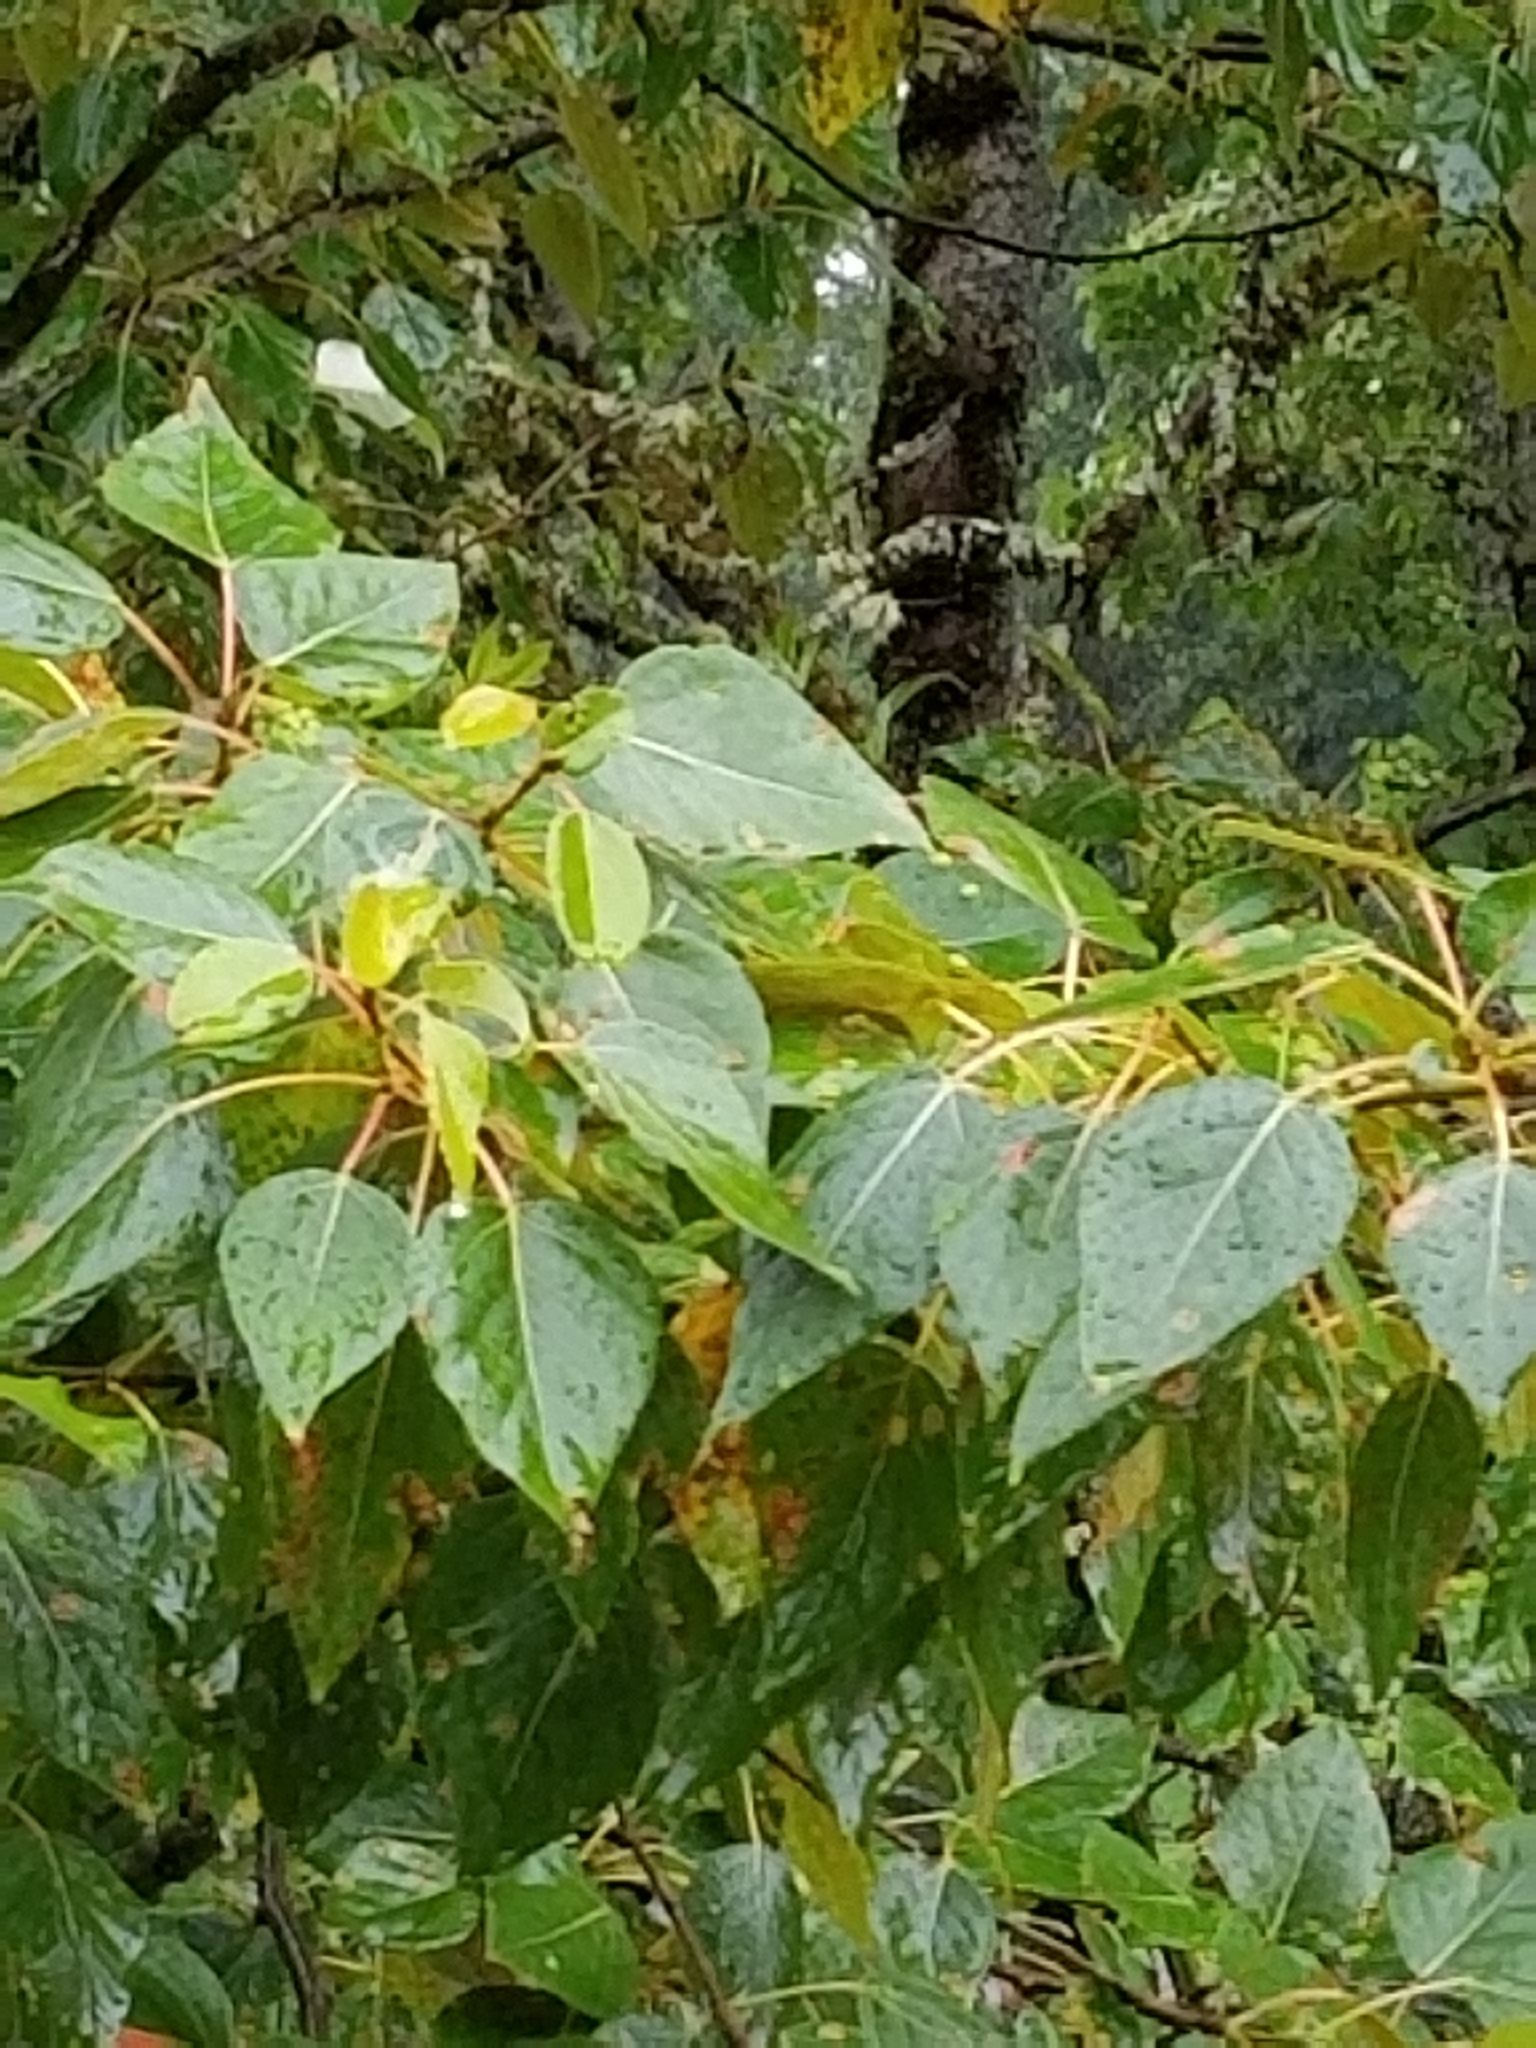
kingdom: Plantae
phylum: Tracheophyta
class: Magnoliopsida
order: Malpighiales
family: Salicaceae
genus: Populus
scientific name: Populus trichocarpa
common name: Black cottonwood
